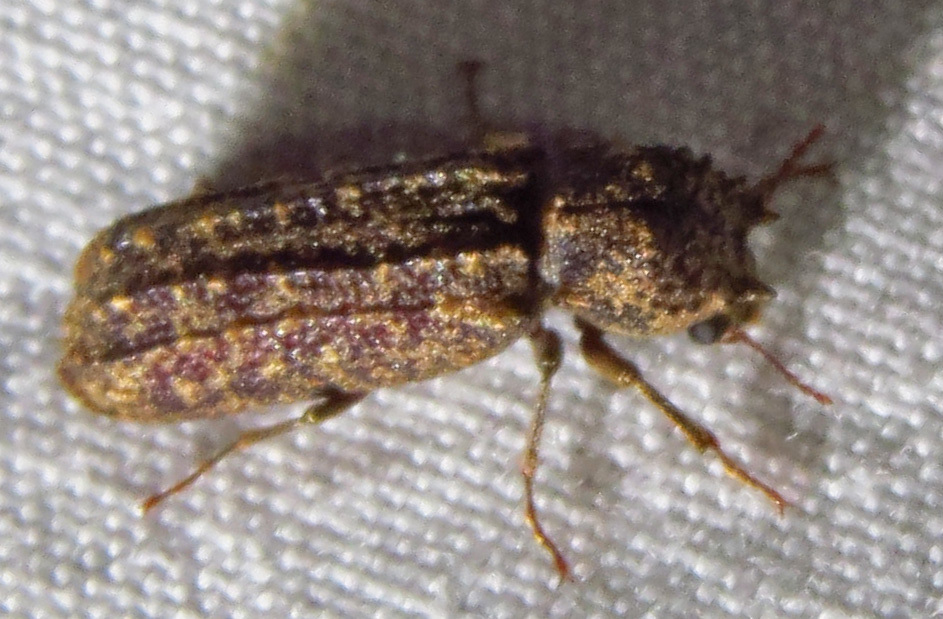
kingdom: Animalia
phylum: Arthropoda
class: Insecta
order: Coleoptera
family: Bostrichidae
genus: Lichenophanes
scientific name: Lichenophanes bicornis
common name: Two-horned powder-post beetle
